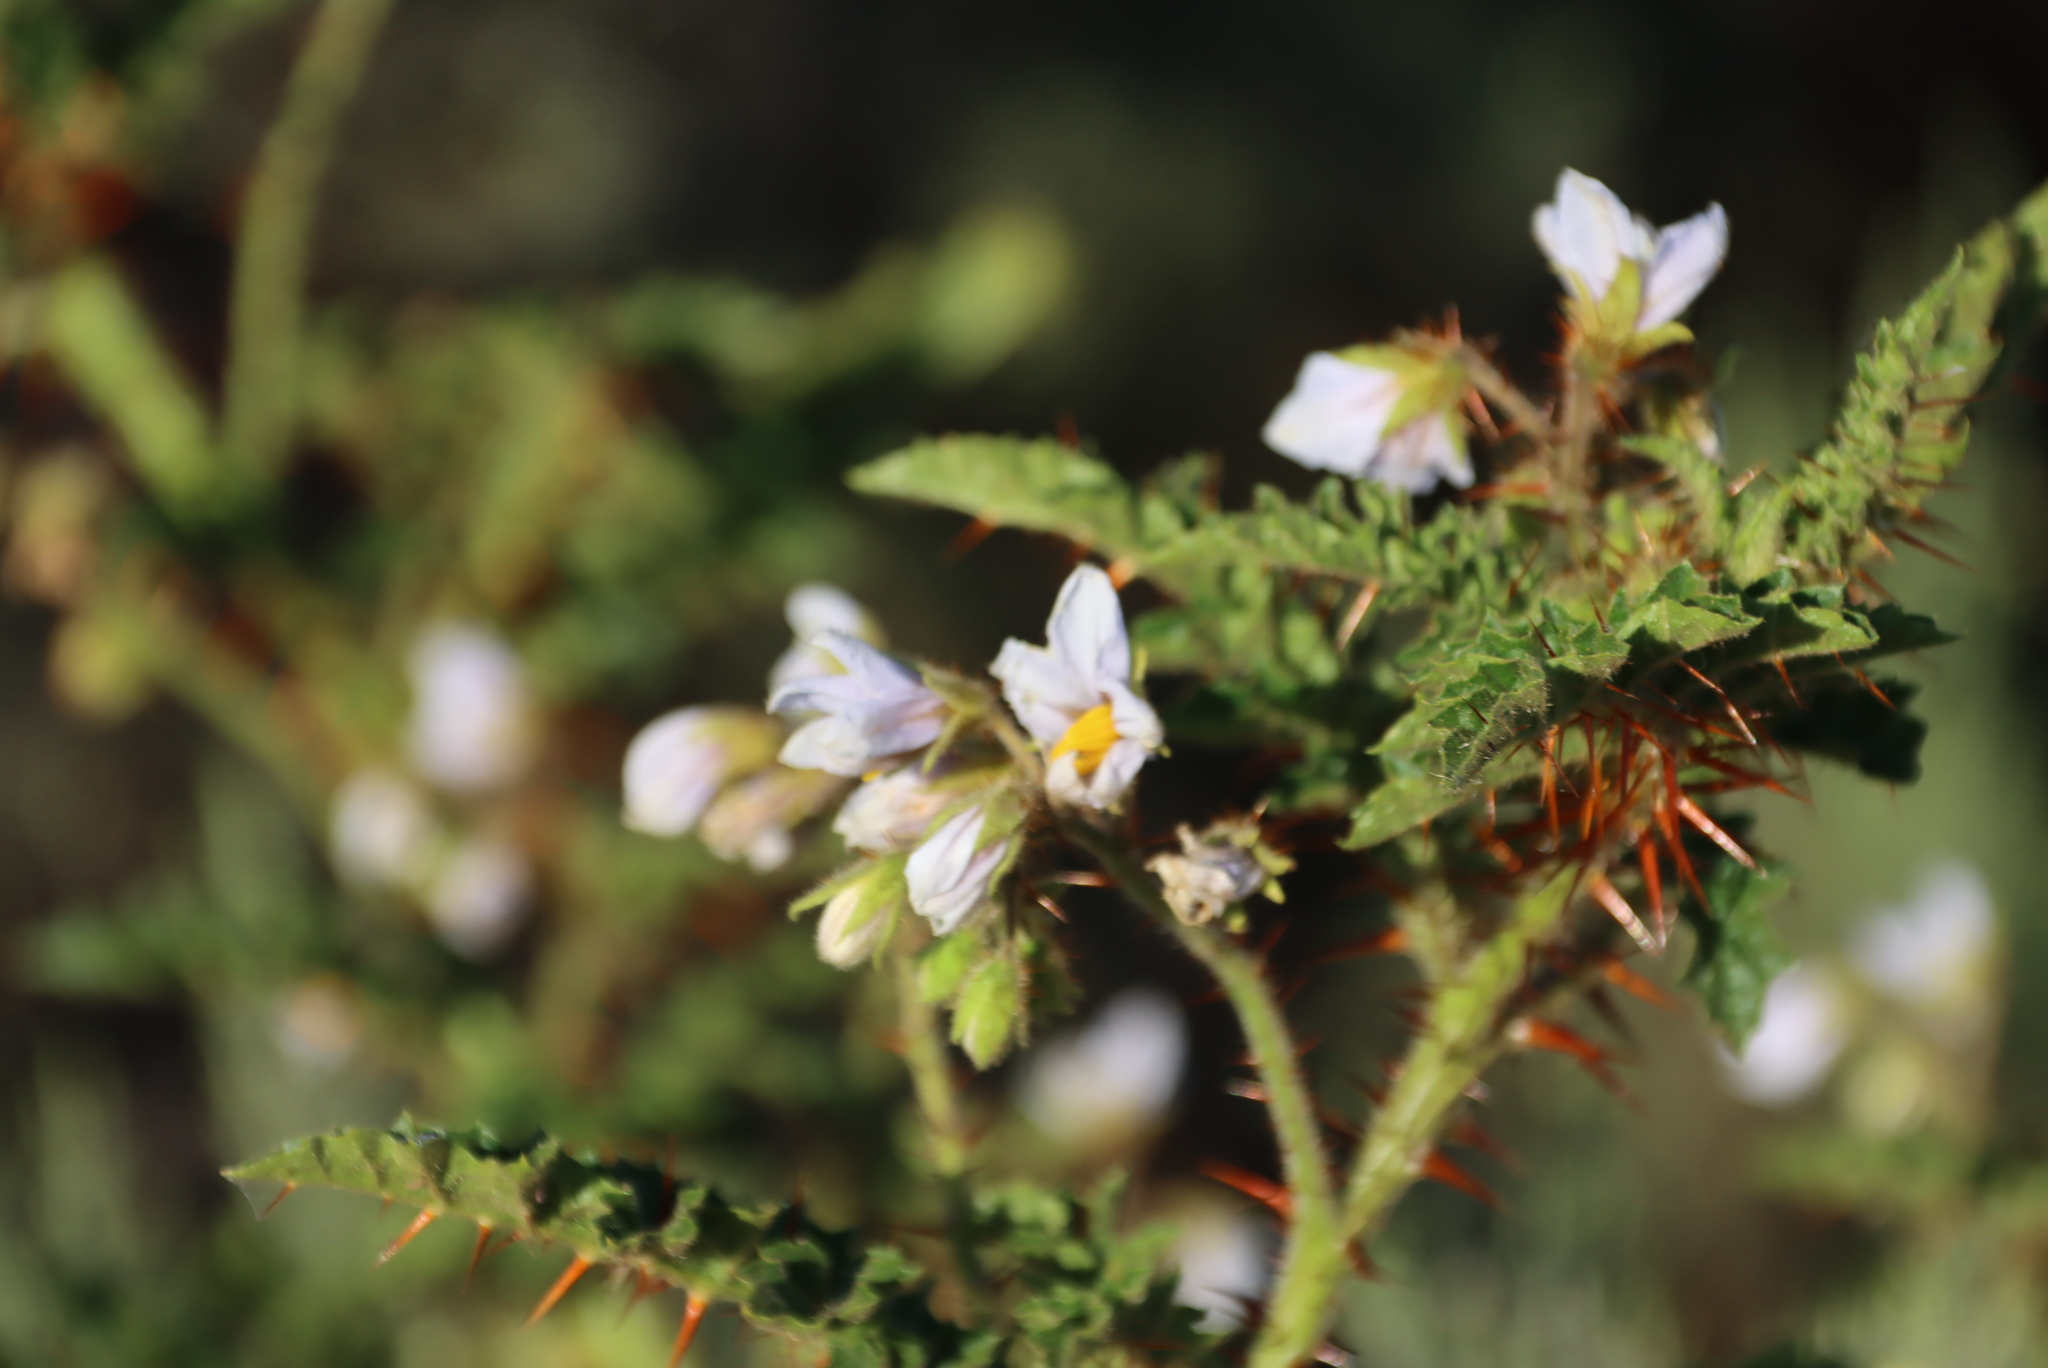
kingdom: Plantae
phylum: Tracheophyta
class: Magnoliopsida
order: Solanales
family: Solanaceae
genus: Solanum
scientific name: Solanum sisymbriifolium
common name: Red buffalo-bur
